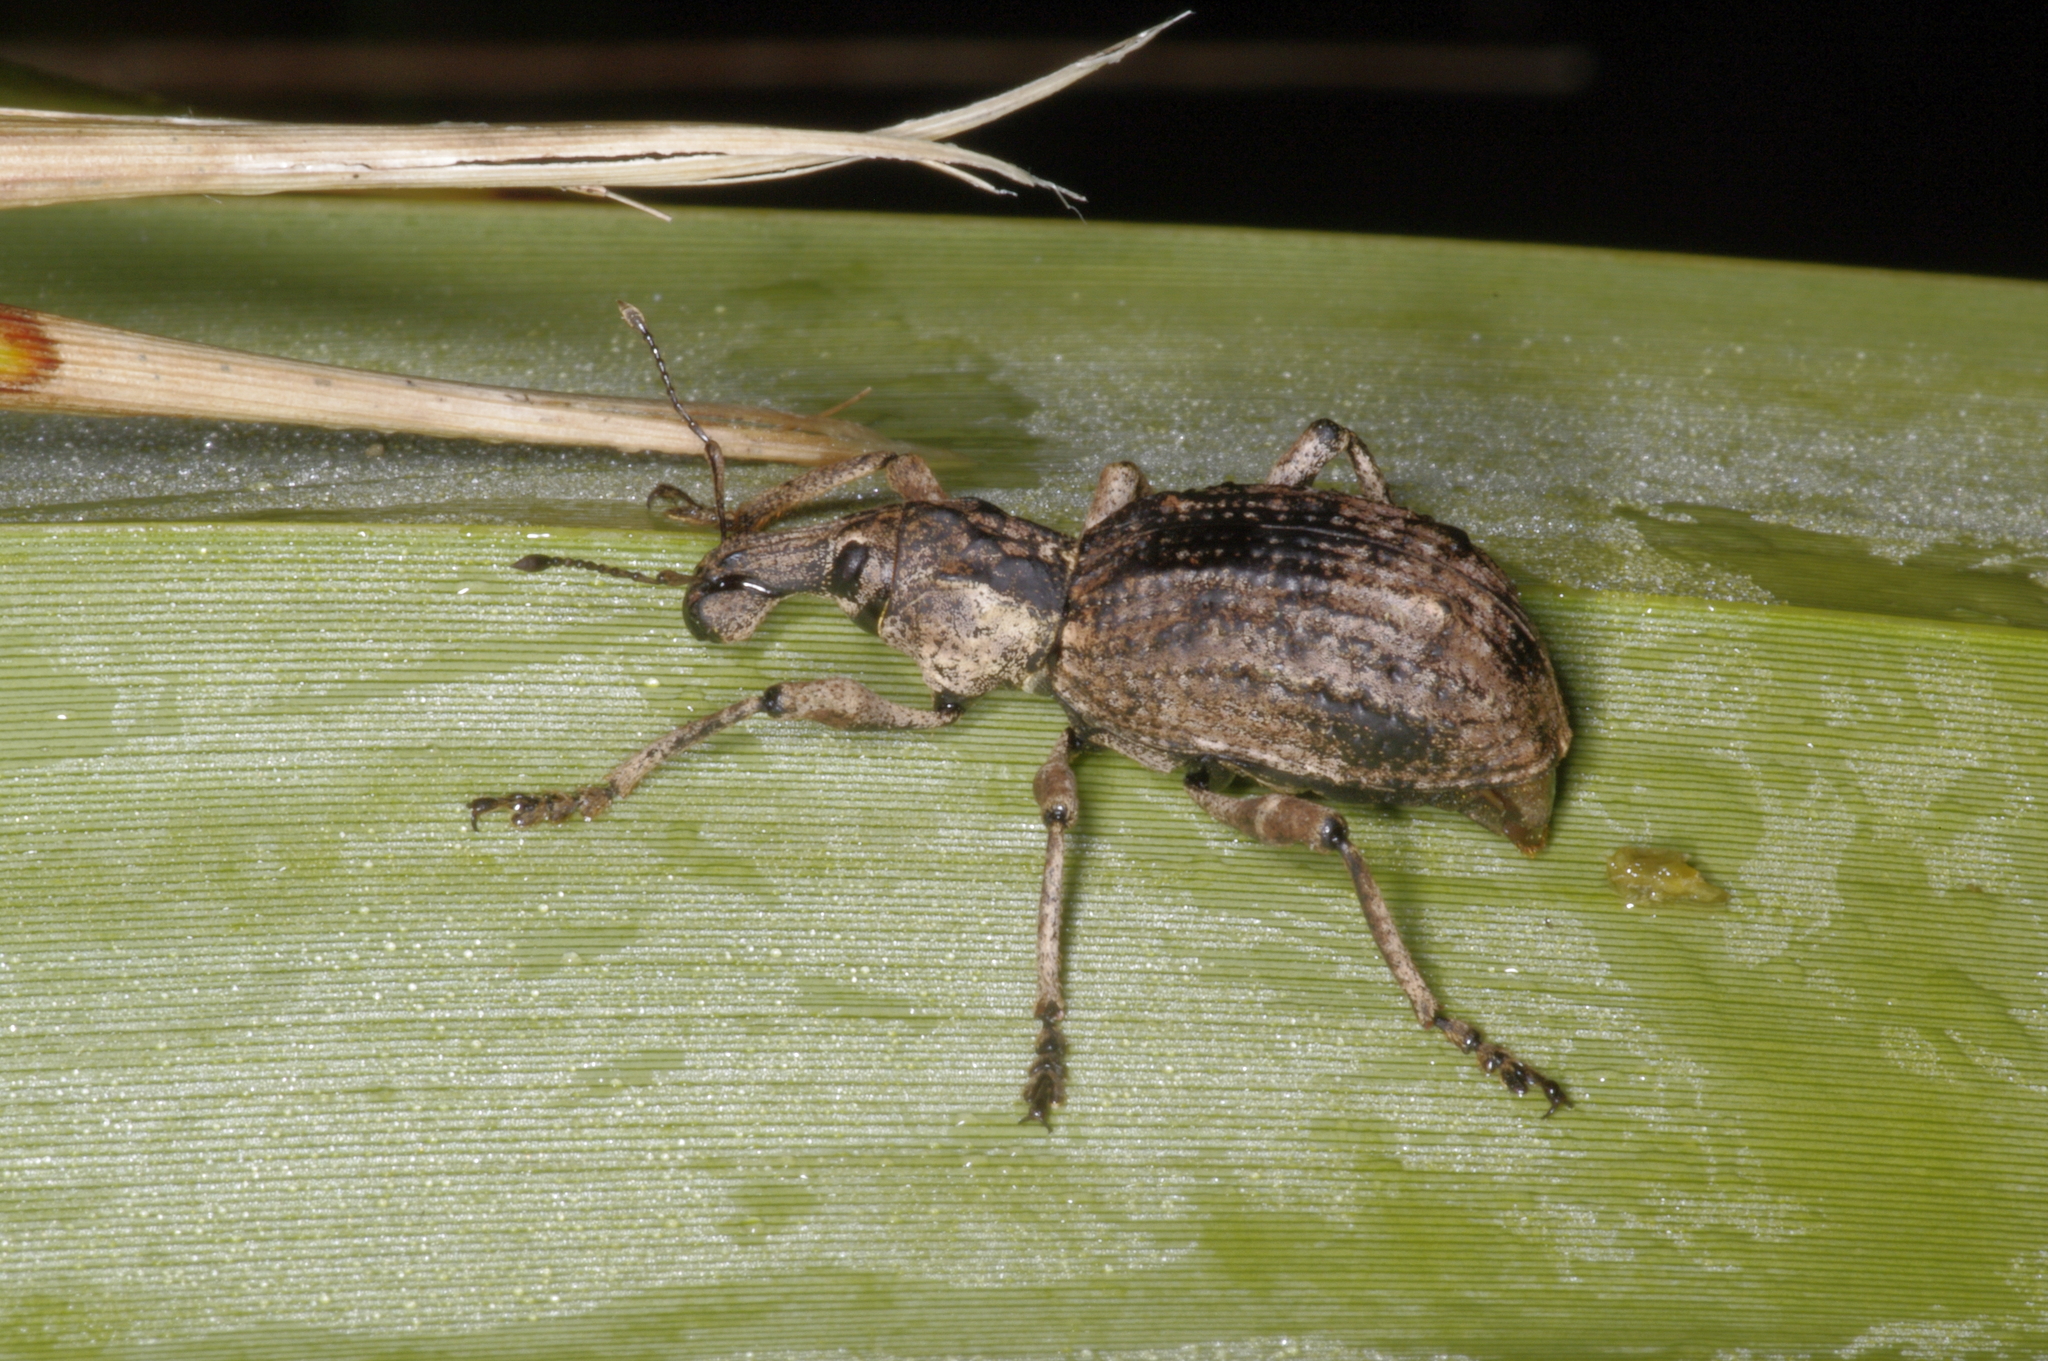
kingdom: Animalia
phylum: Arthropoda
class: Insecta
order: Coleoptera
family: Curculionidae
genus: Anagotus
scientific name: Anagotus fairburni
